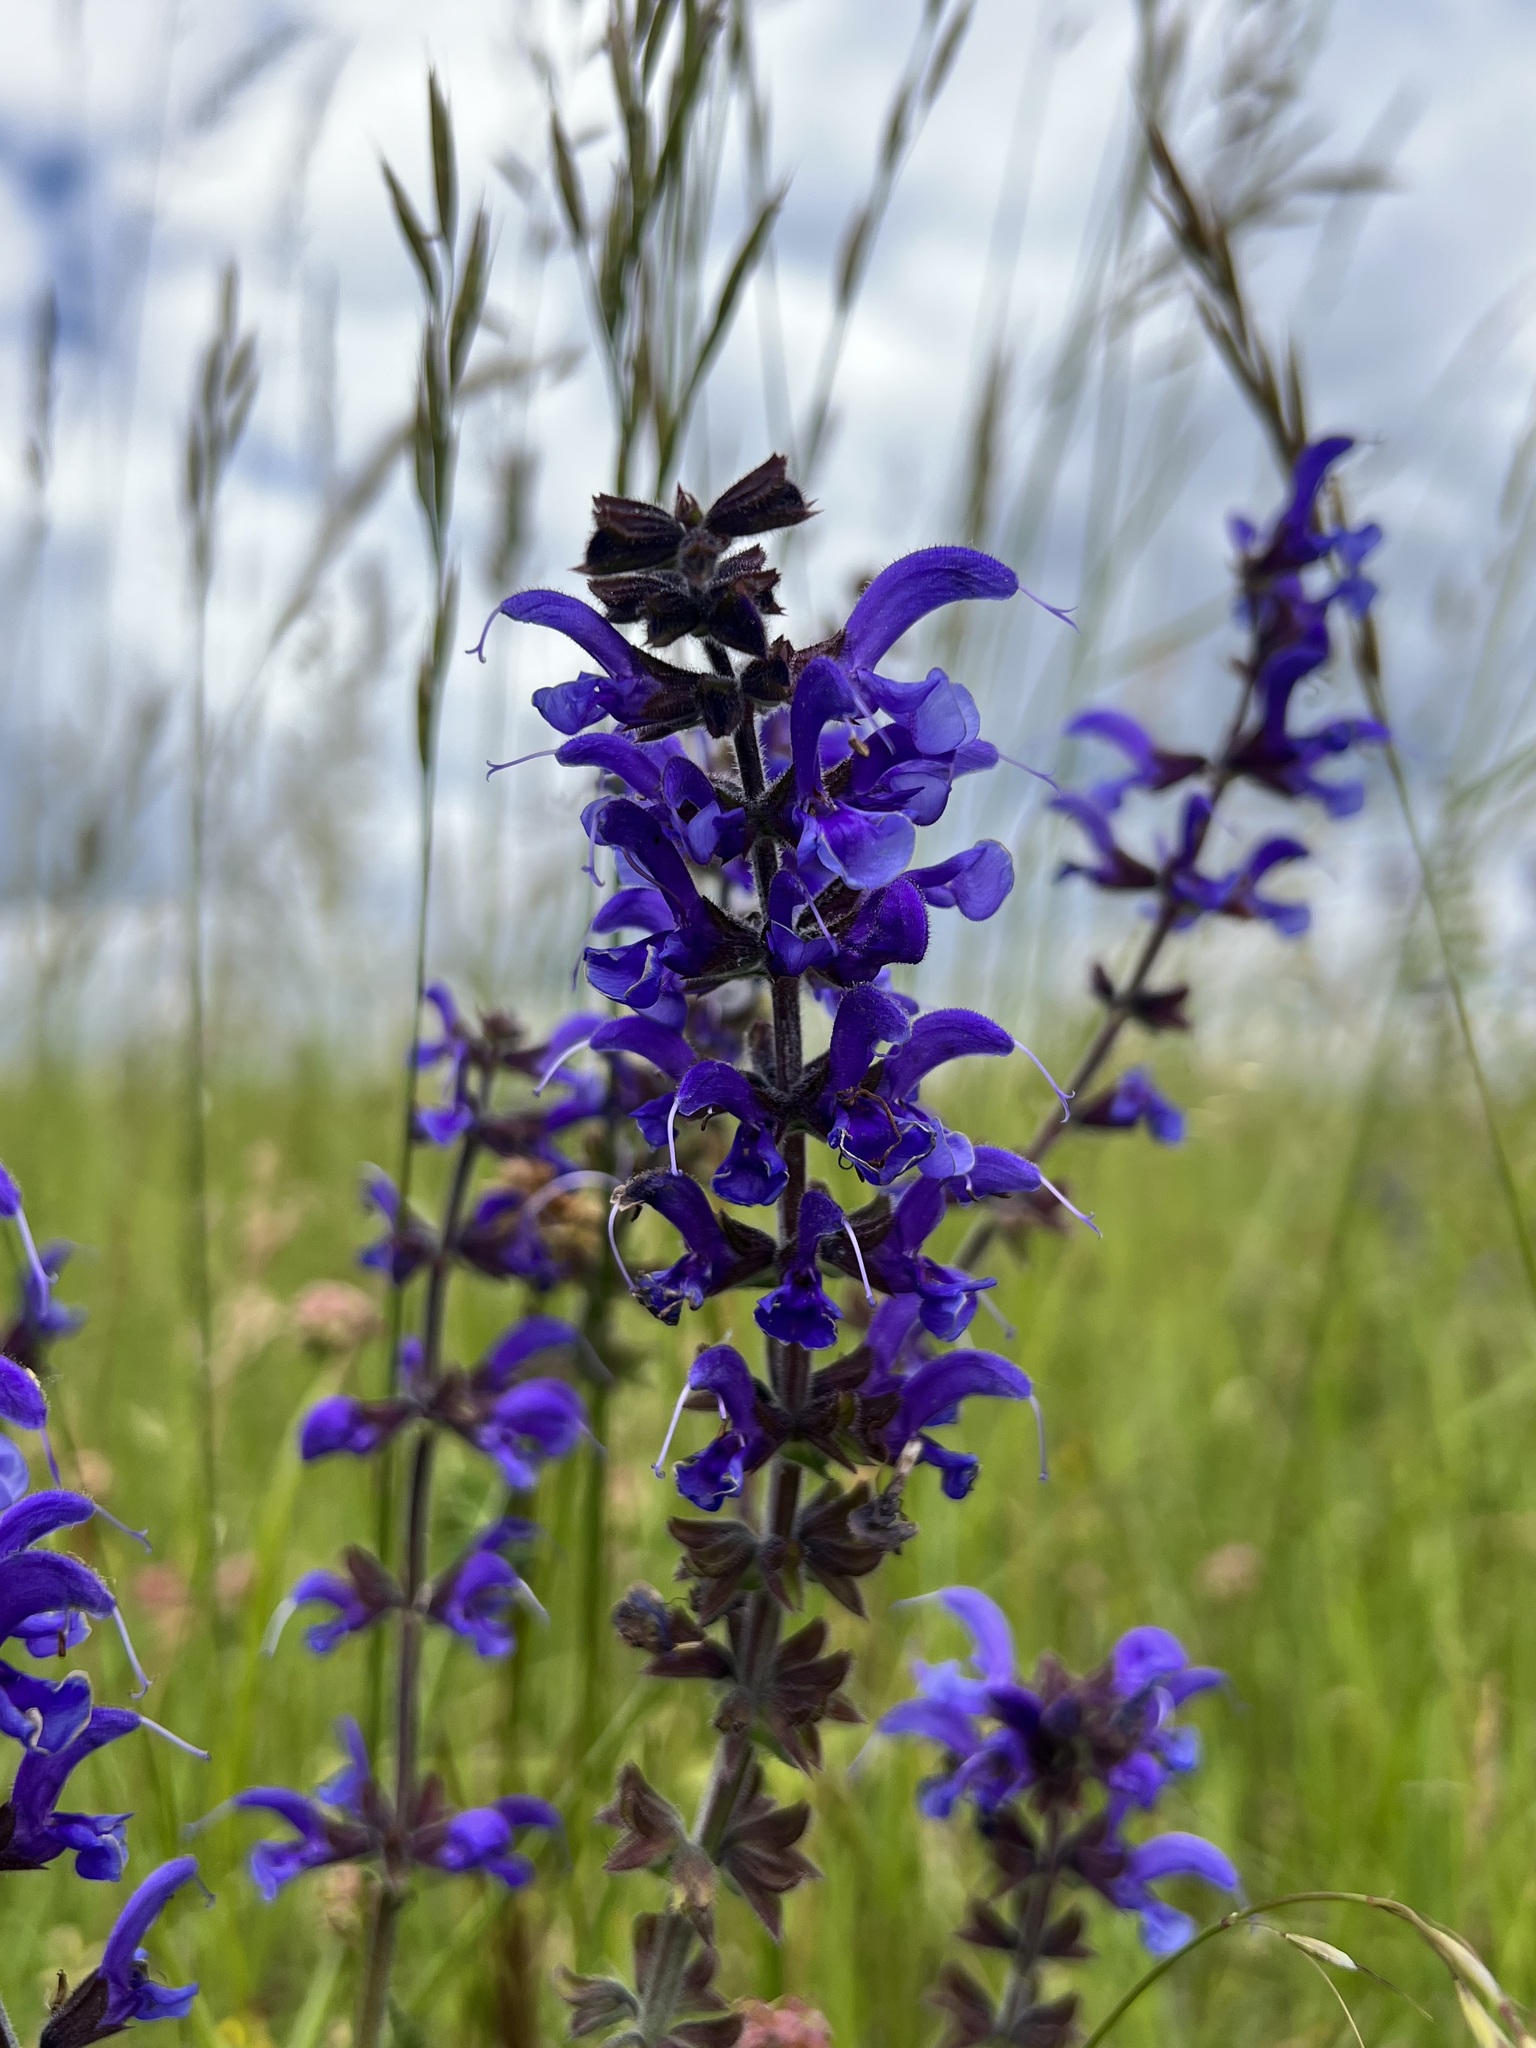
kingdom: Plantae
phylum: Tracheophyta
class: Magnoliopsida
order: Lamiales
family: Lamiaceae
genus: Salvia
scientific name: Salvia pratensis
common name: Meadow sage
